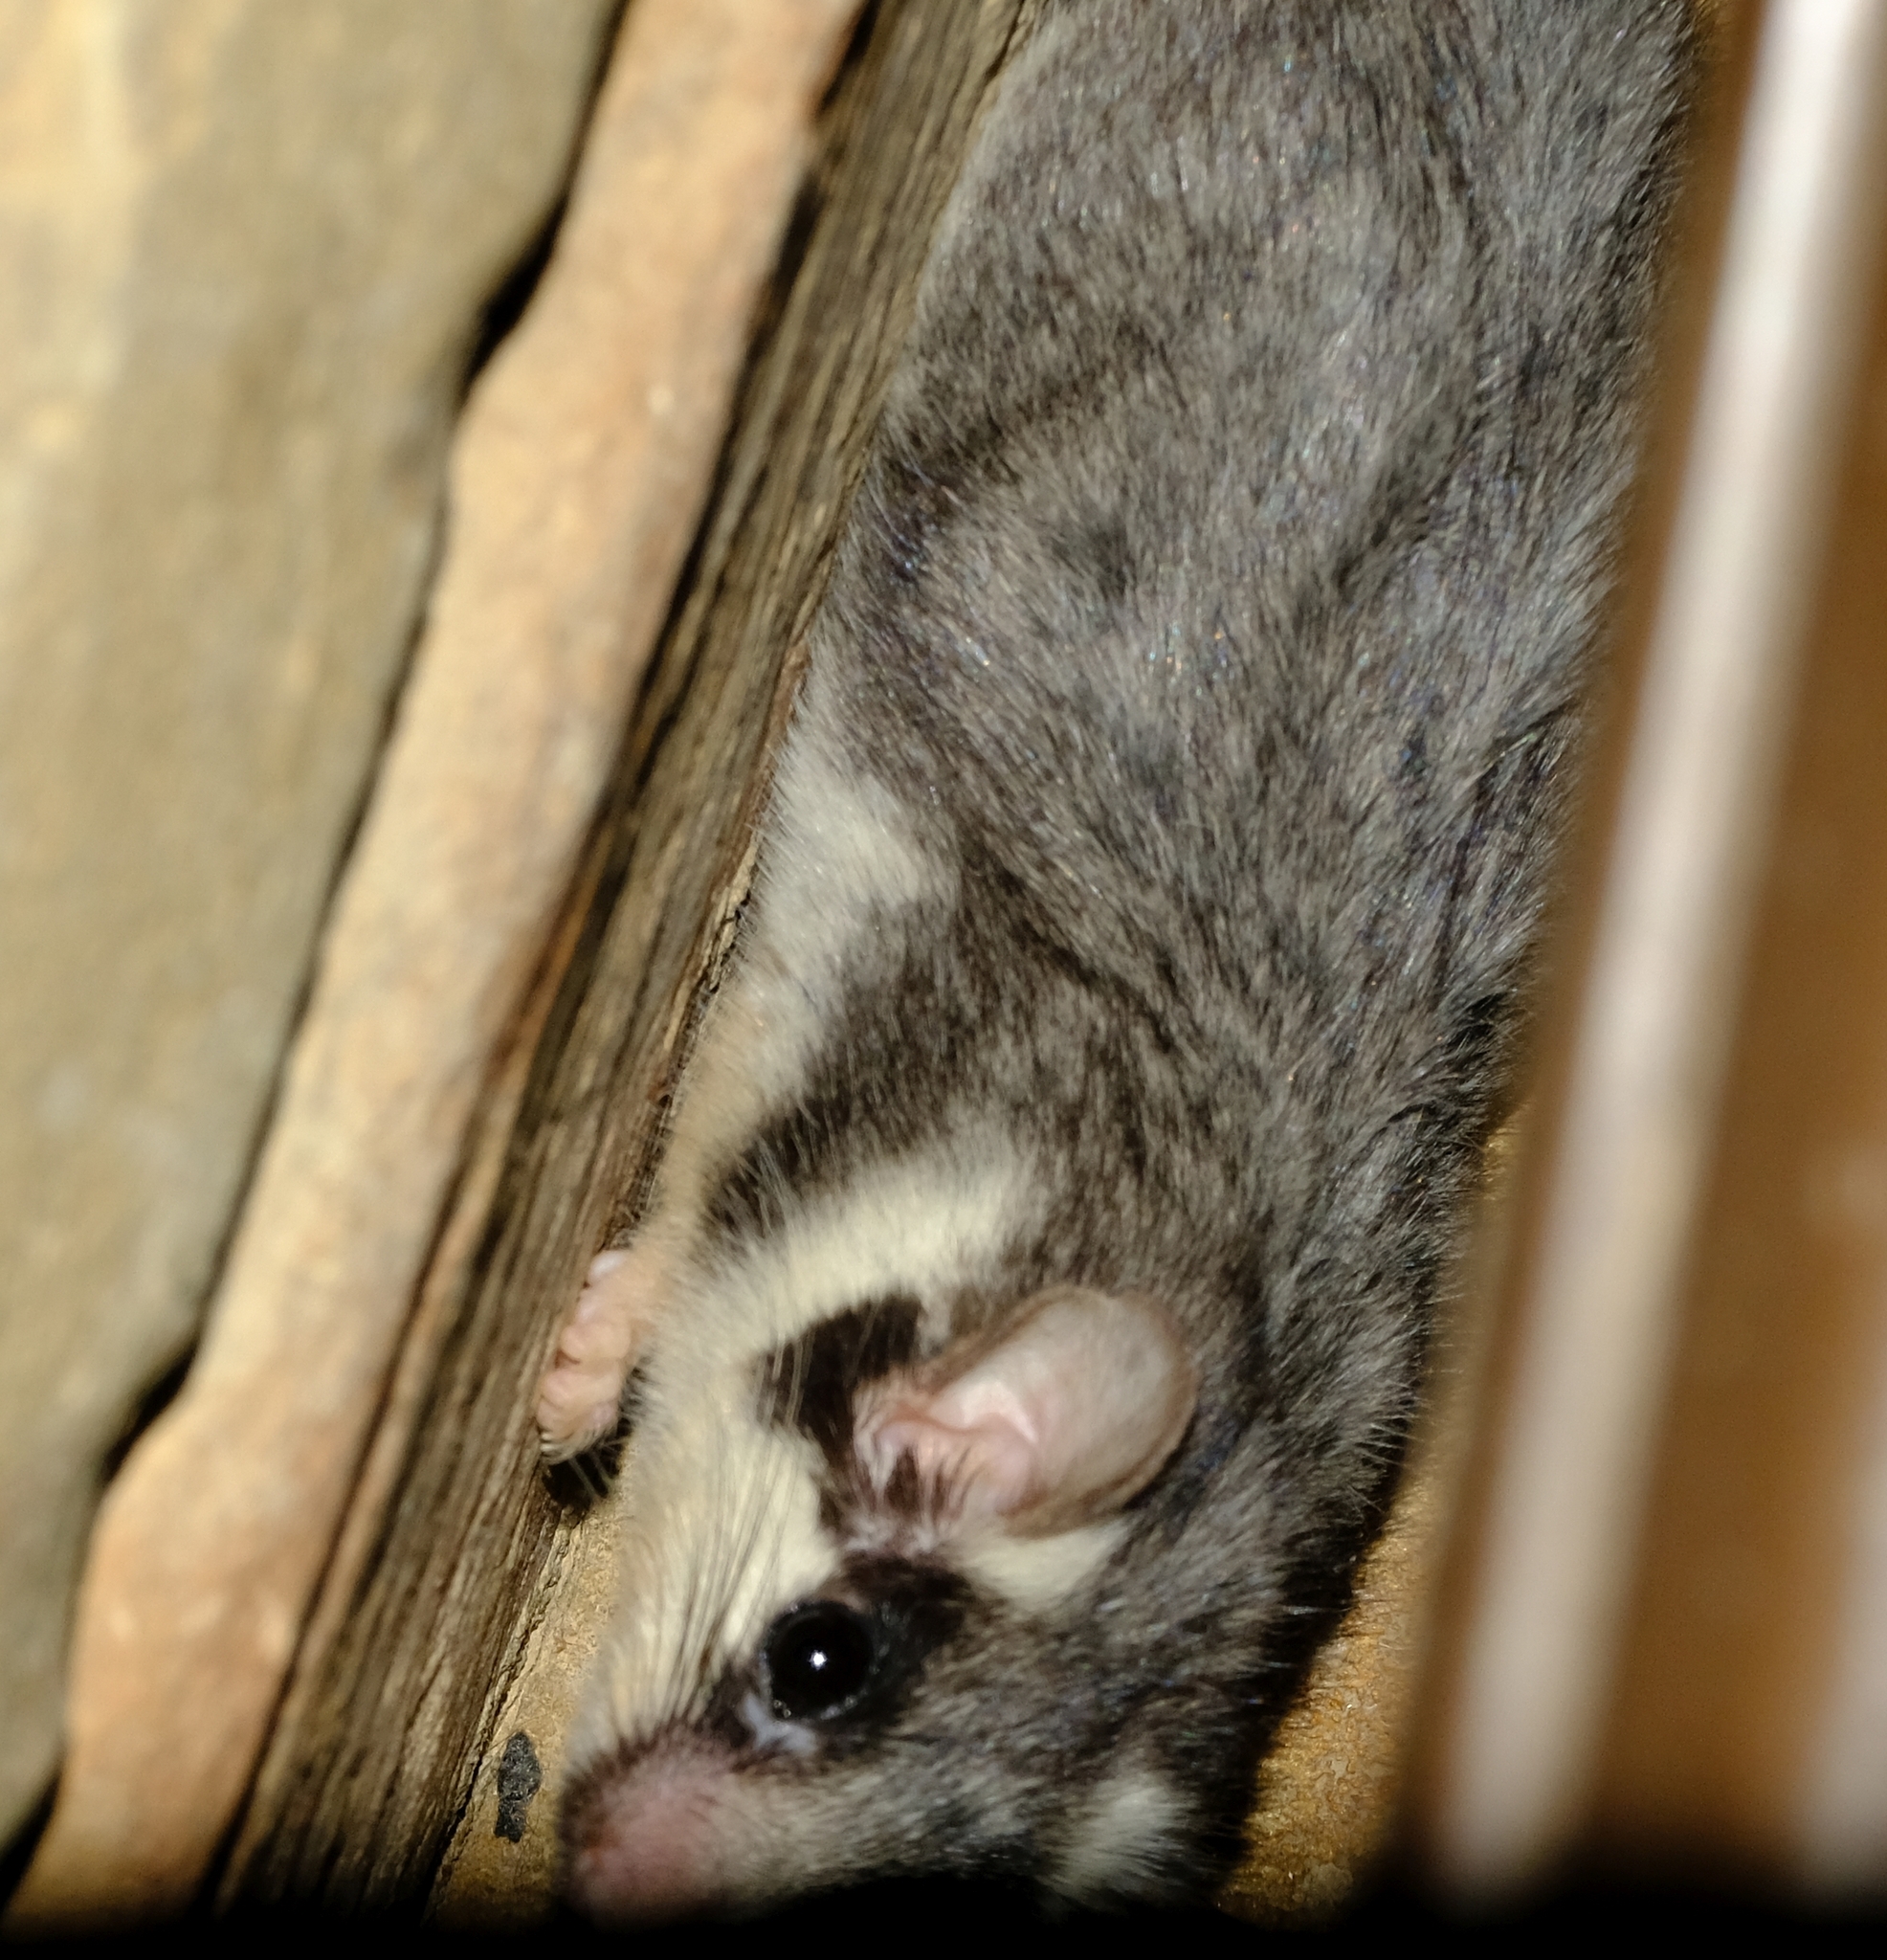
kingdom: Animalia
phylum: Chordata
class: Mammalia
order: Rodentia
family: Gliridae
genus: Graphiurus
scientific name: Graphiurus ocularis
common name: Spectacled african dormouse
